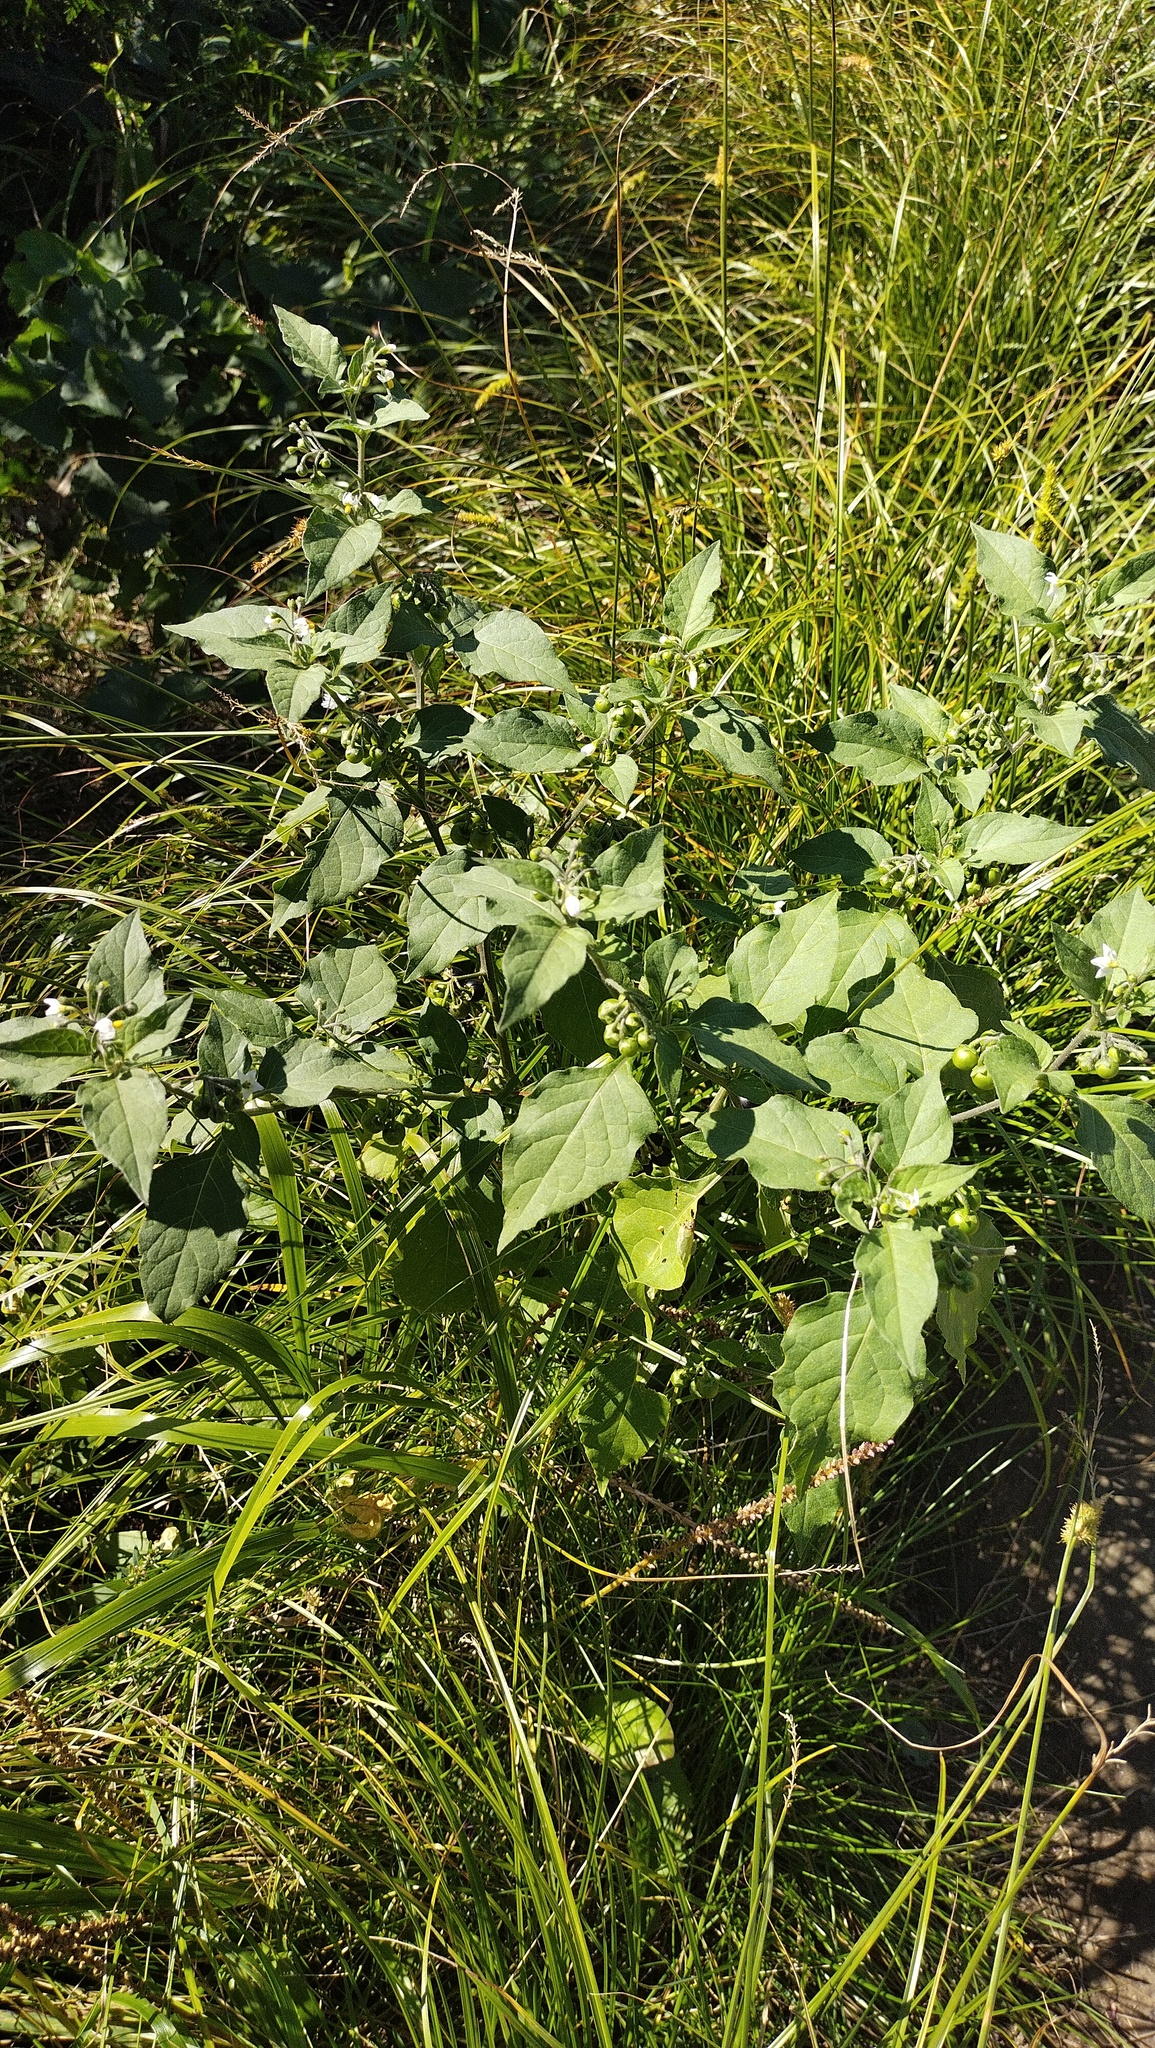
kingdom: Plantae
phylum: Tracheophyta
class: Magnoliopsida
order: Solanales
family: Solanaceae
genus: Solanum
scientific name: Solanum nigrum
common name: Black nightshade
